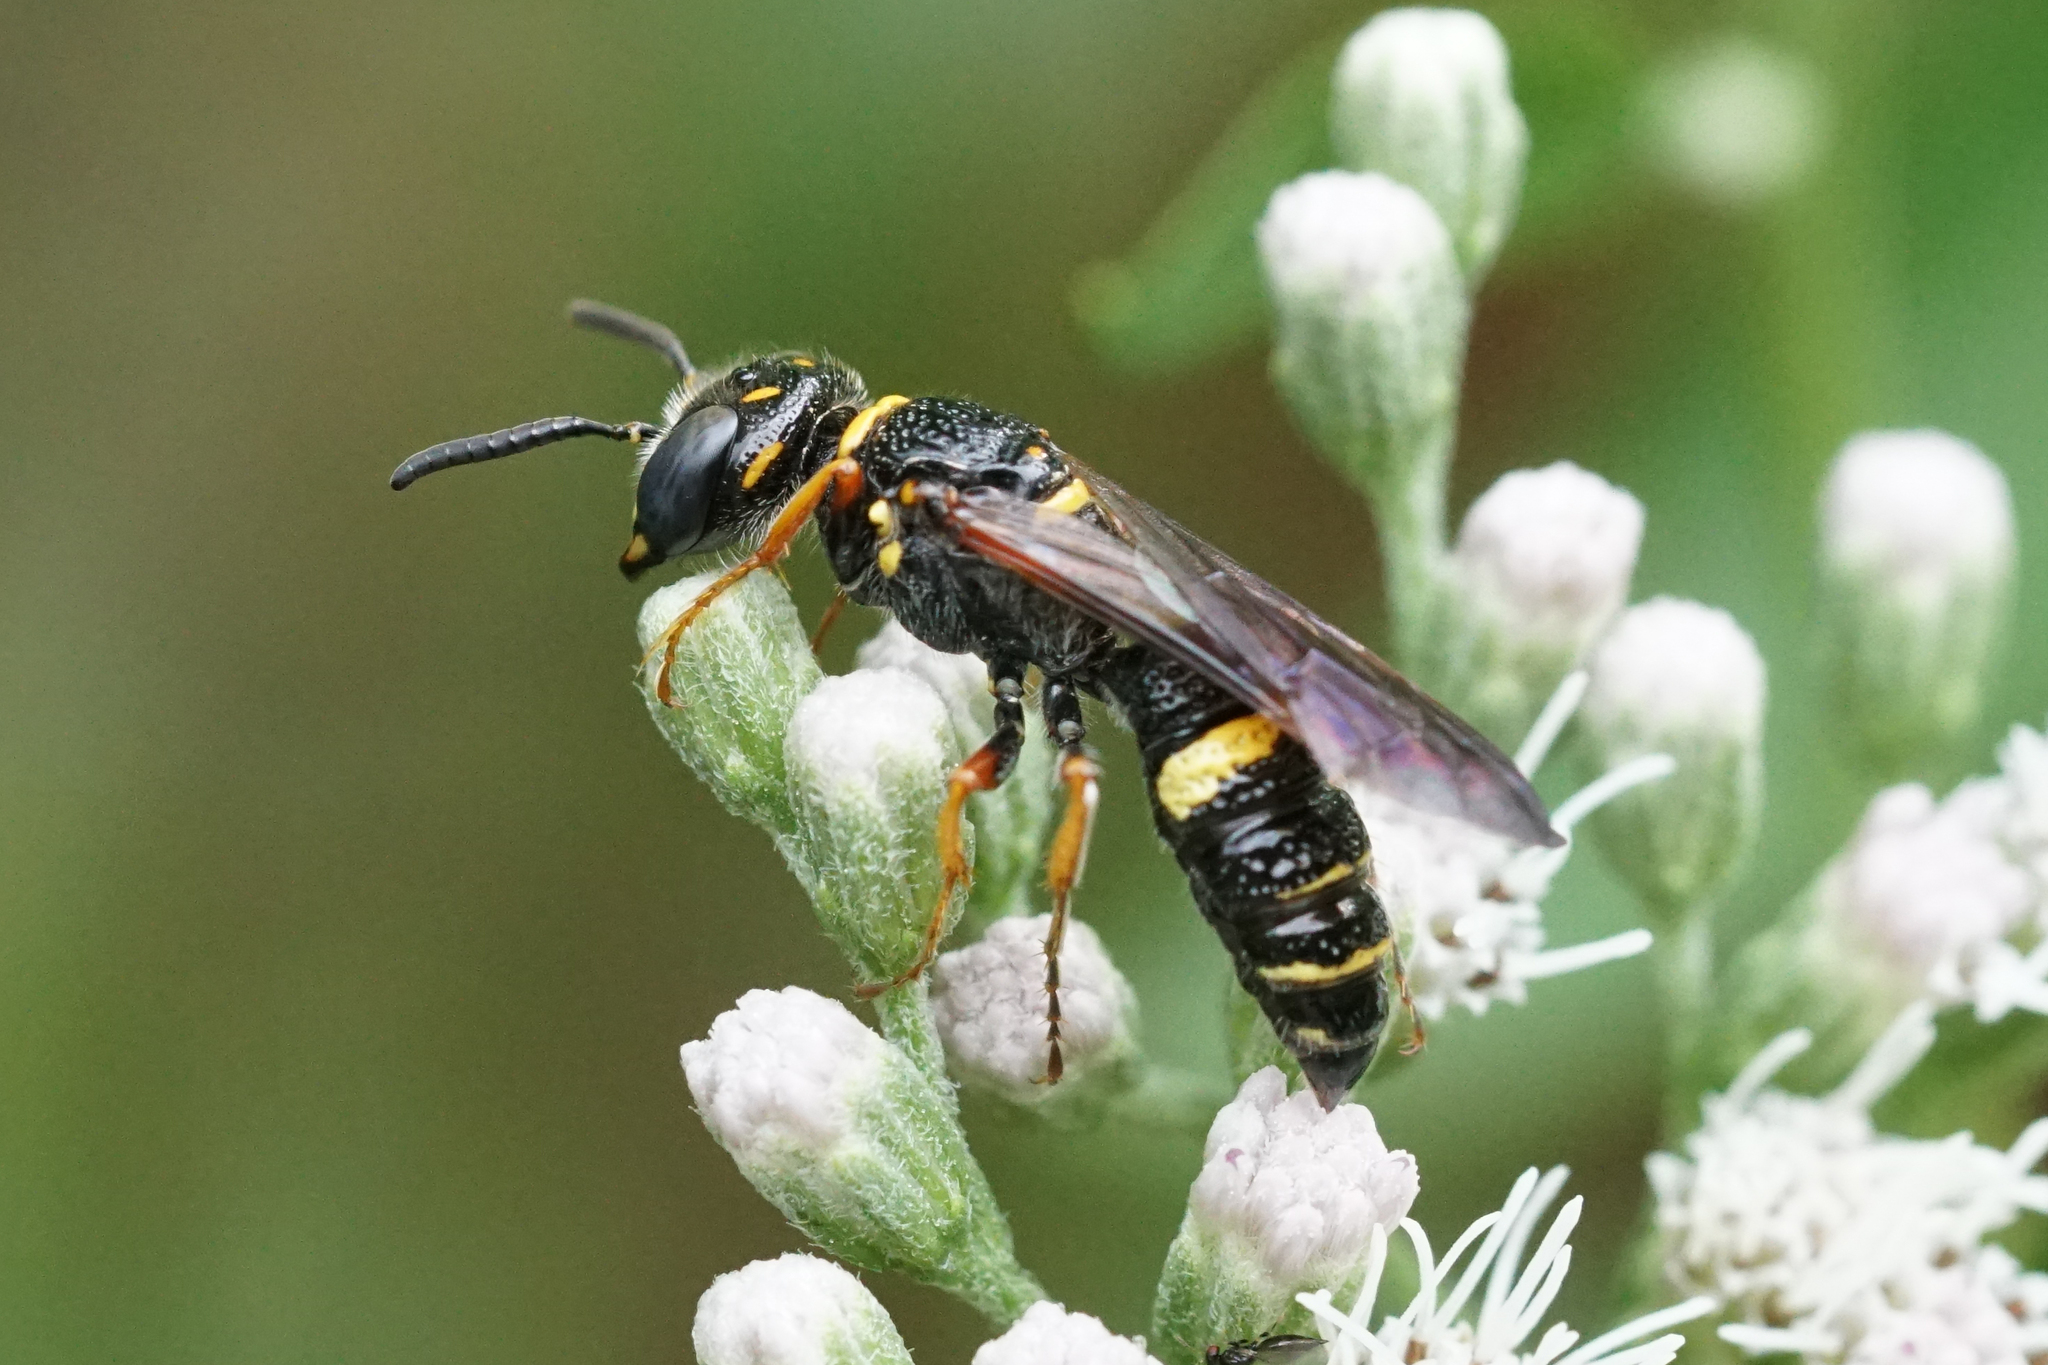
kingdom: Animalia
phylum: Arthropoda
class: Insecta
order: Hymenoptera
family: Crabronidae
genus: Philanthus
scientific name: Philanthus gibbosus
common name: Humped beewolf
